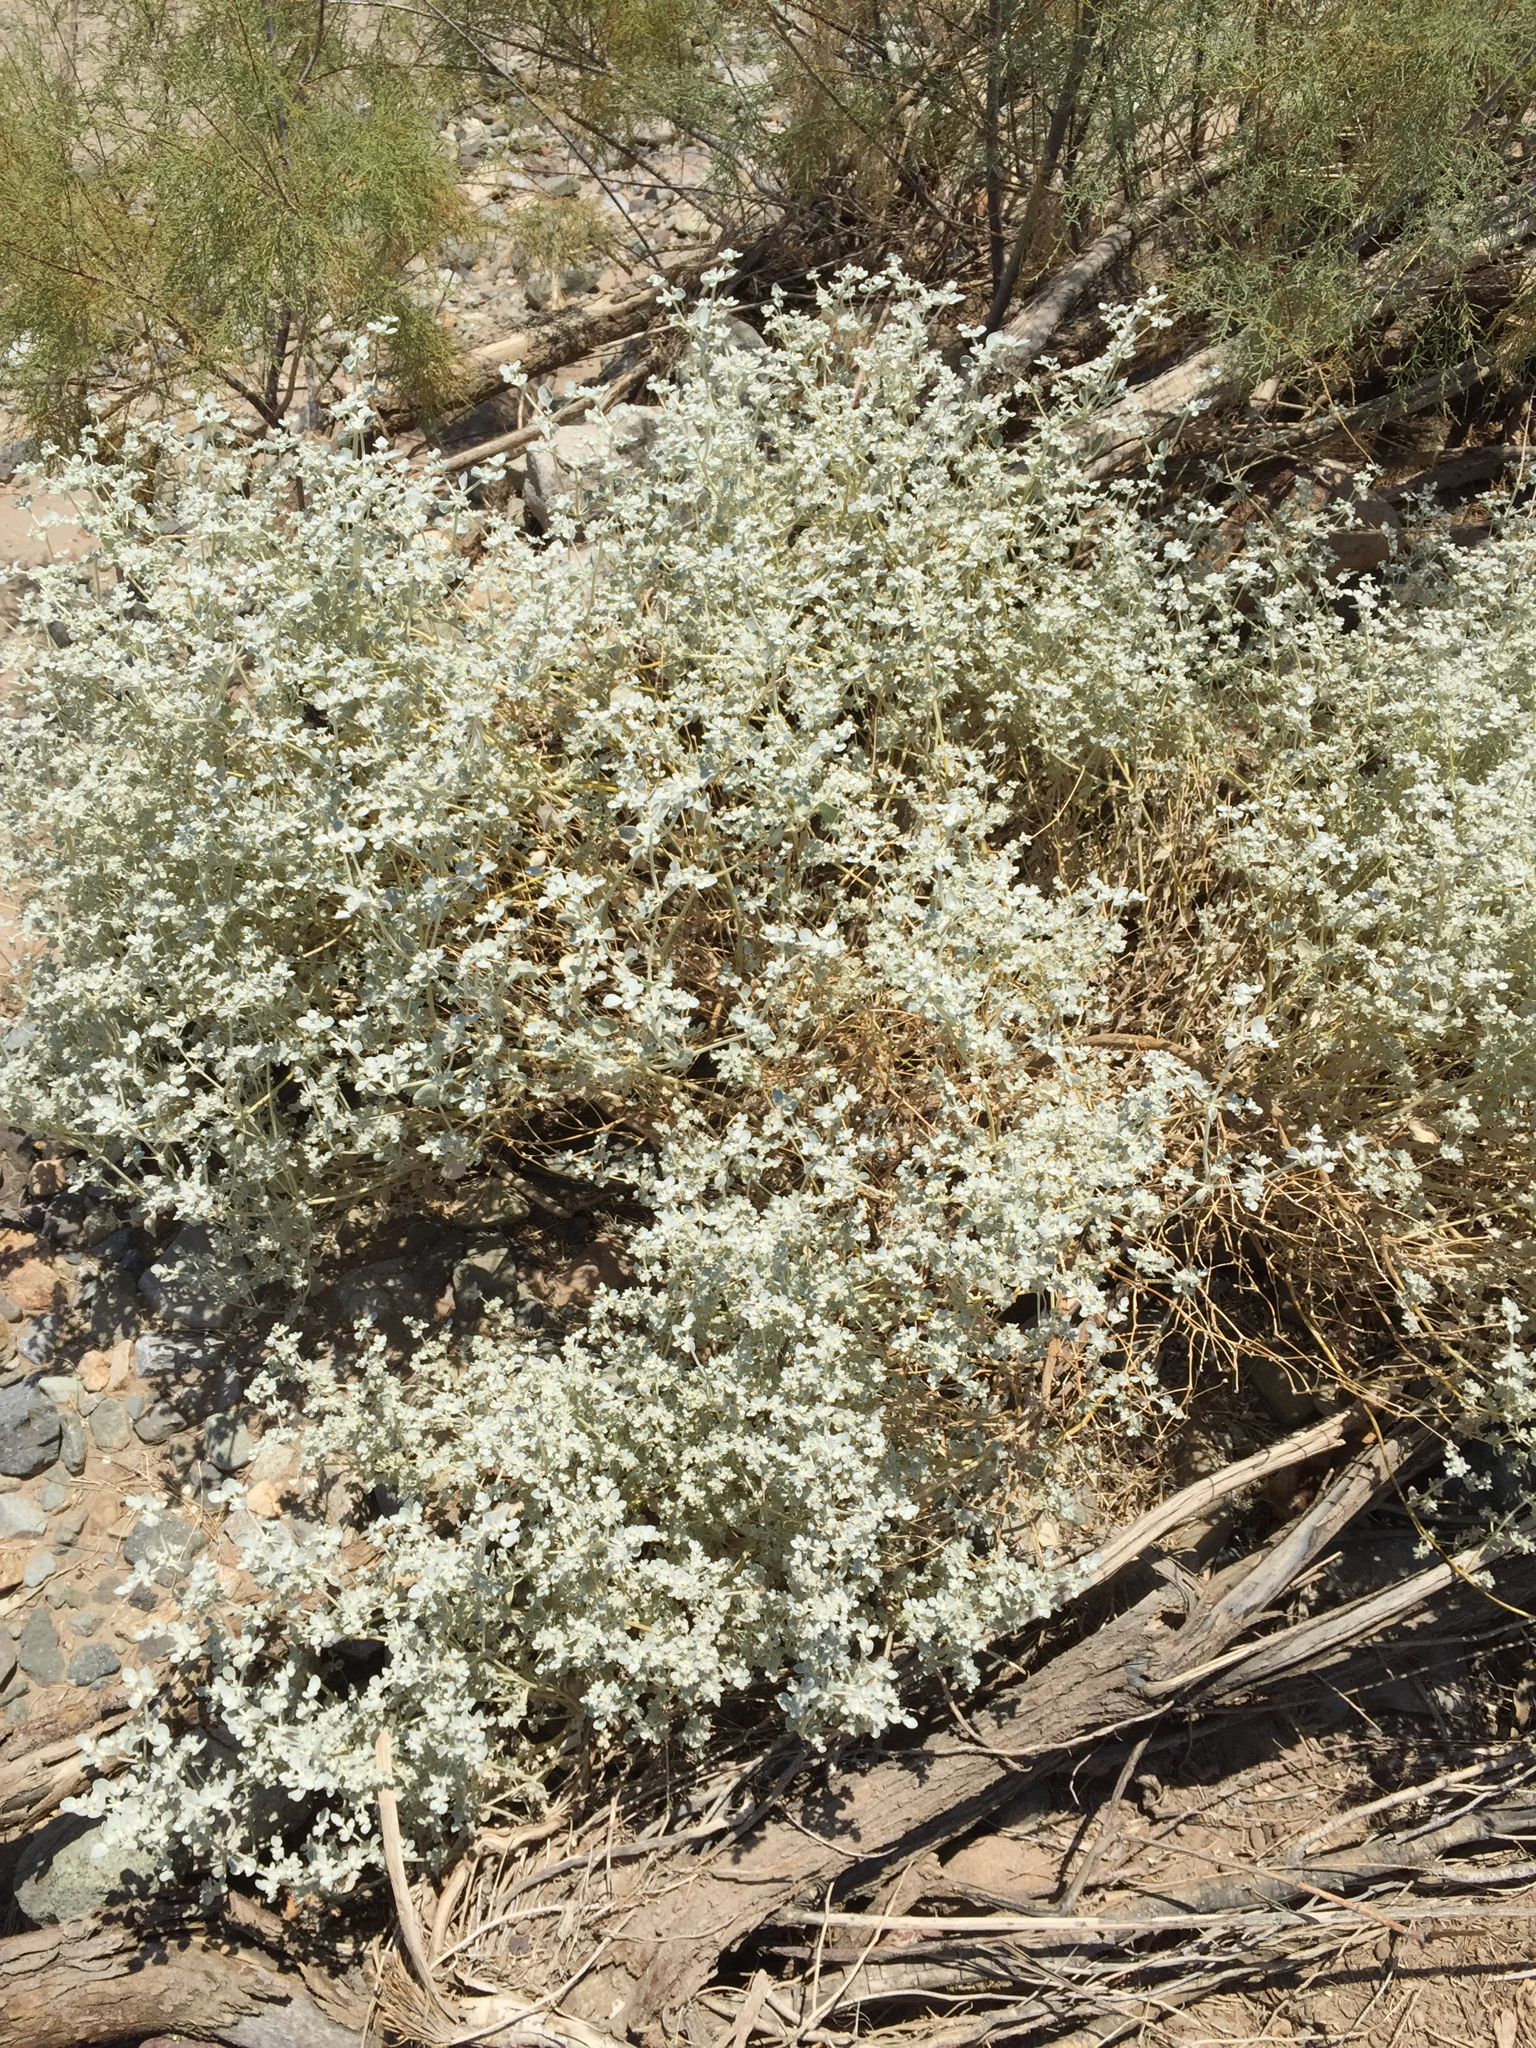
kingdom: Plantae
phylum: Tracheophyta
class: Magnoliopsida
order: Caryophyllales
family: Amaranthaceae
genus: Tidestromia
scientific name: Tidestromia suffruticosa
